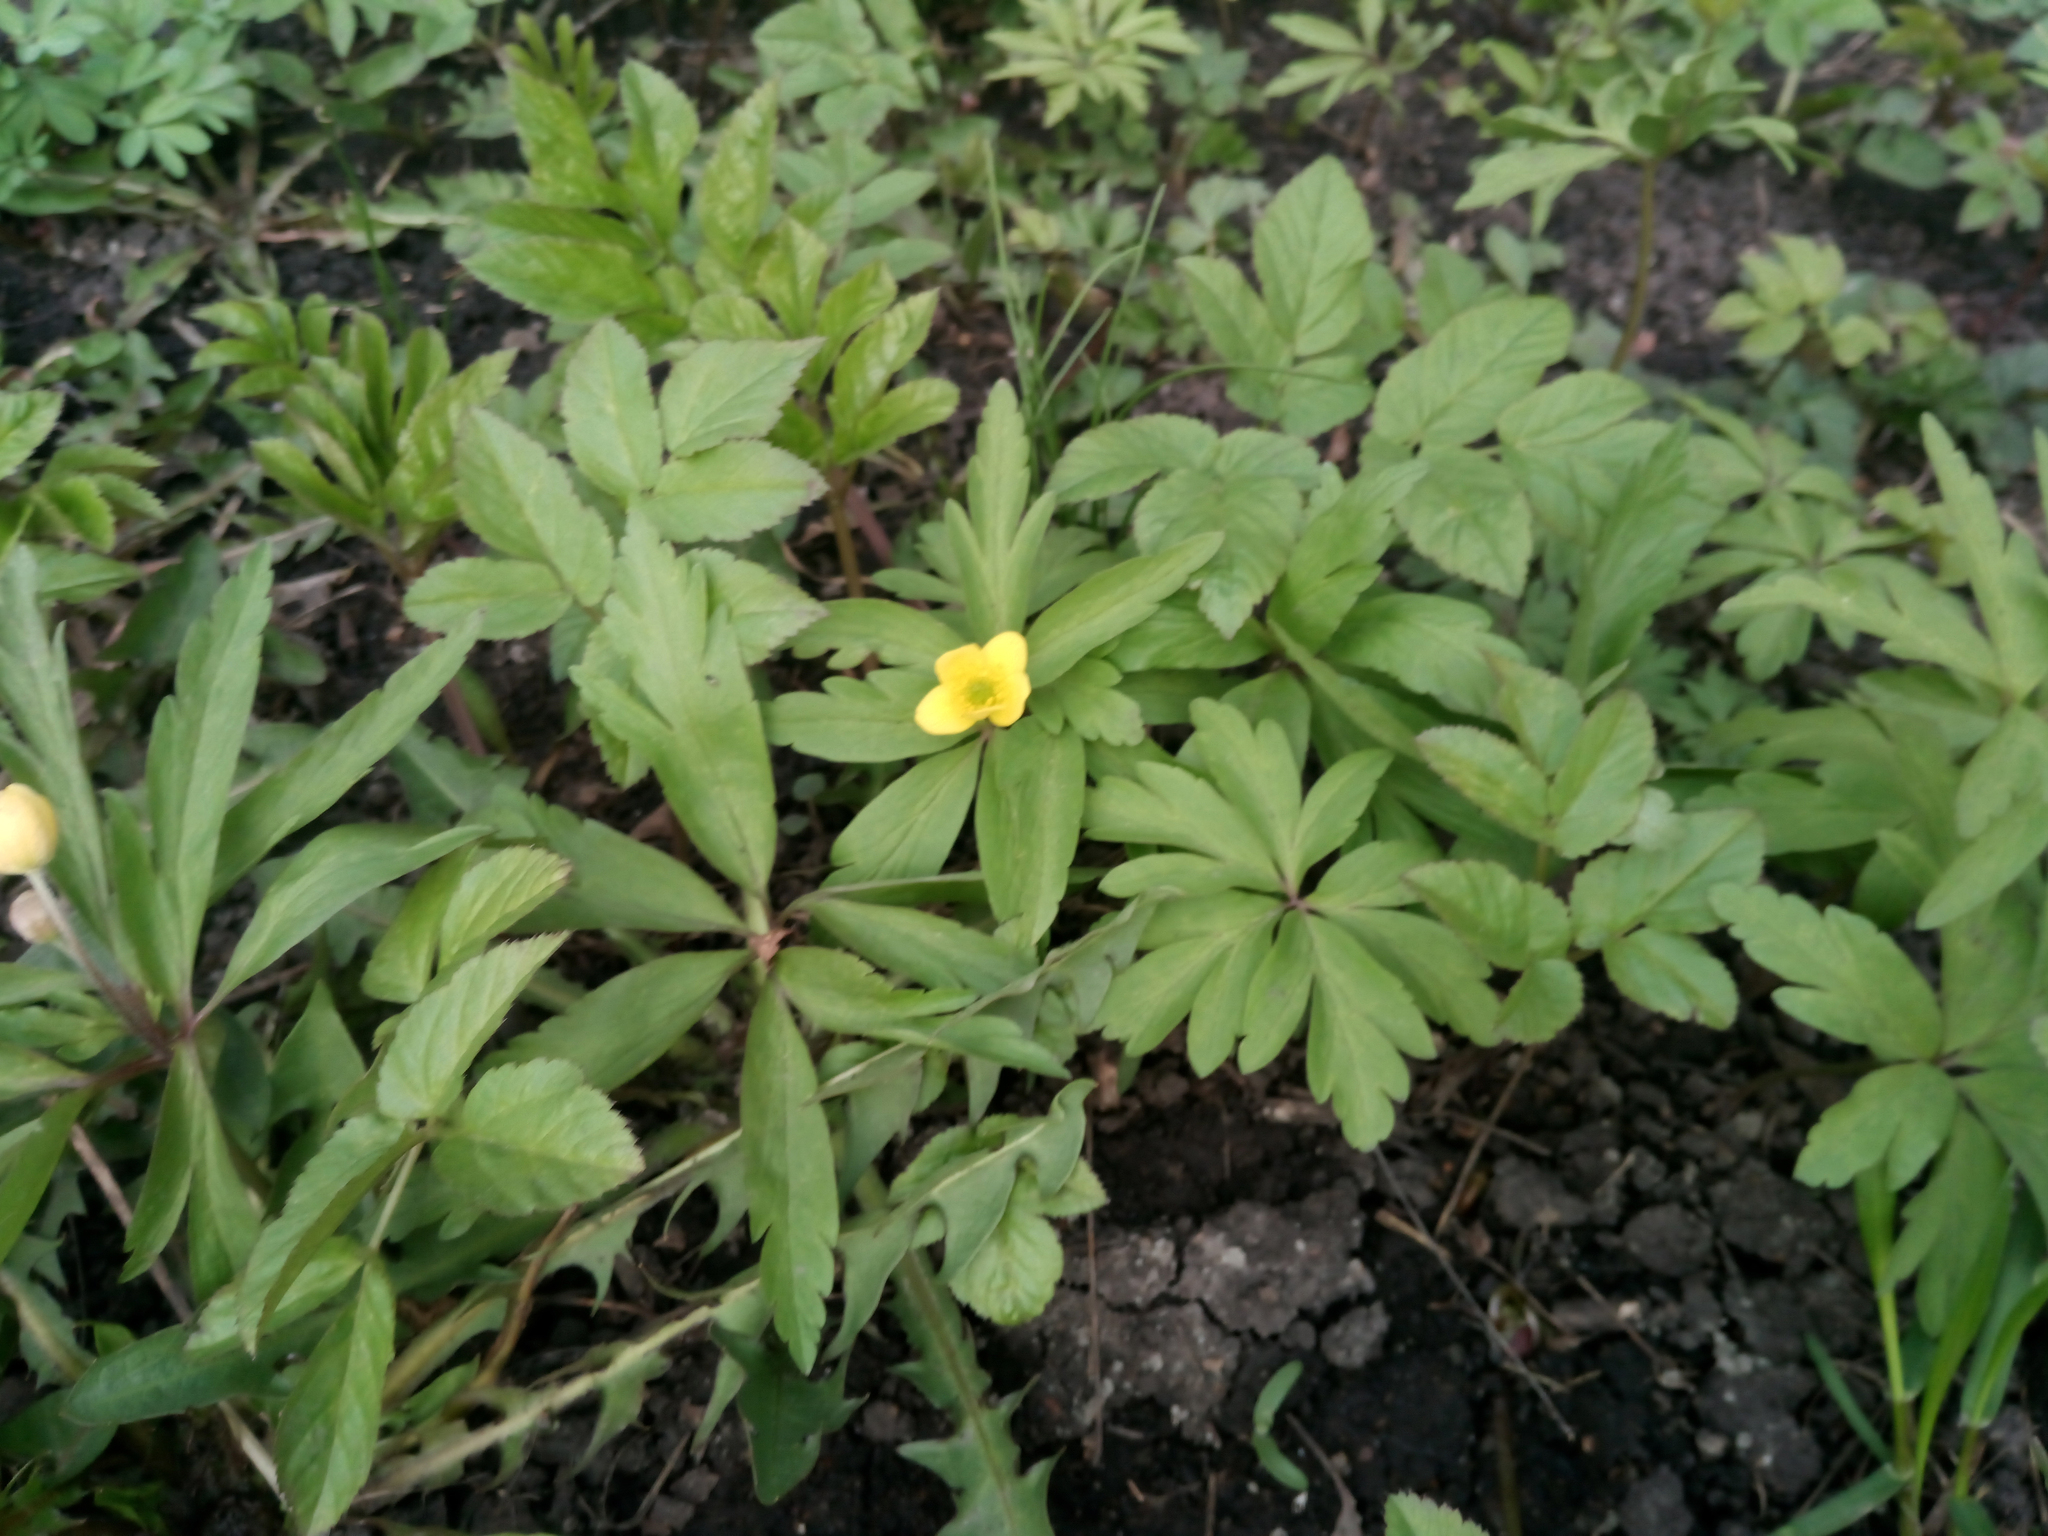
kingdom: Plantae
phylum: Tracheophyta
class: Magnoliopsida
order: Ranunculales
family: Ranunculaceae
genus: Anemone
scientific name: Anemone ranunculoides
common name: Yellow anemone
